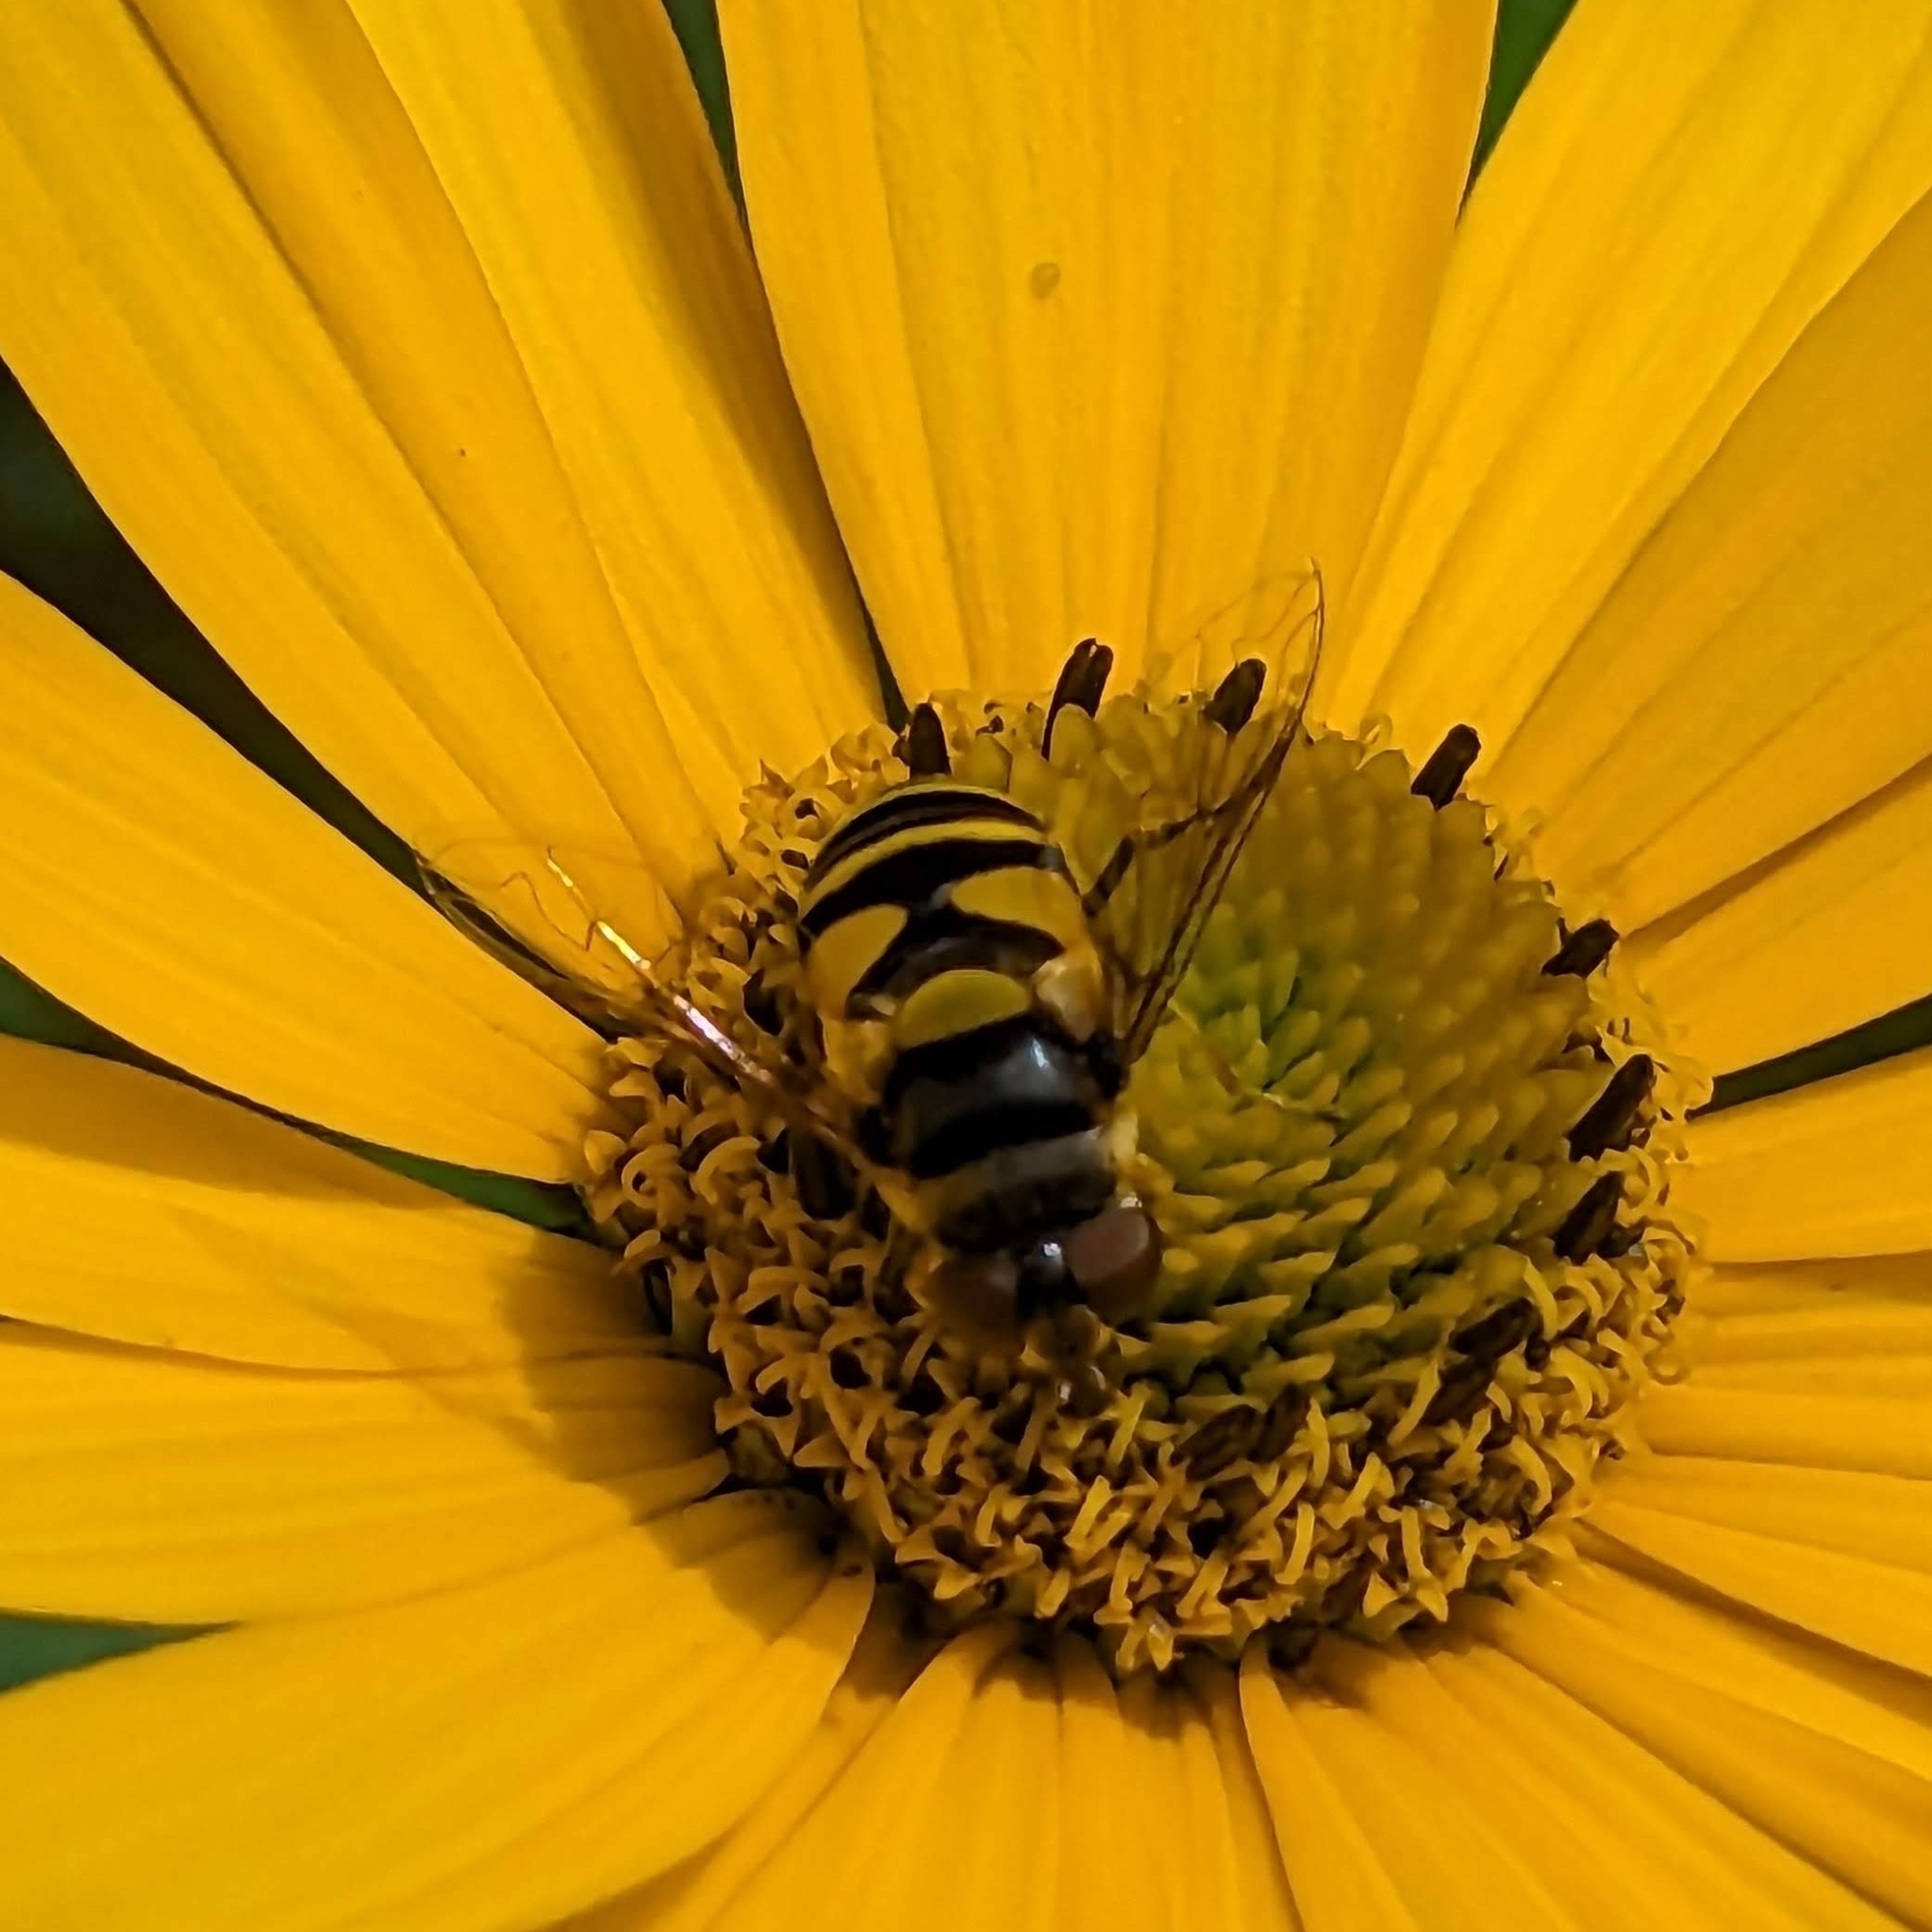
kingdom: Animalia
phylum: Arthropoda
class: Insecta
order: Diptera
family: Syrphidae
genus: Eristalis
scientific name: Eristalis transversa
